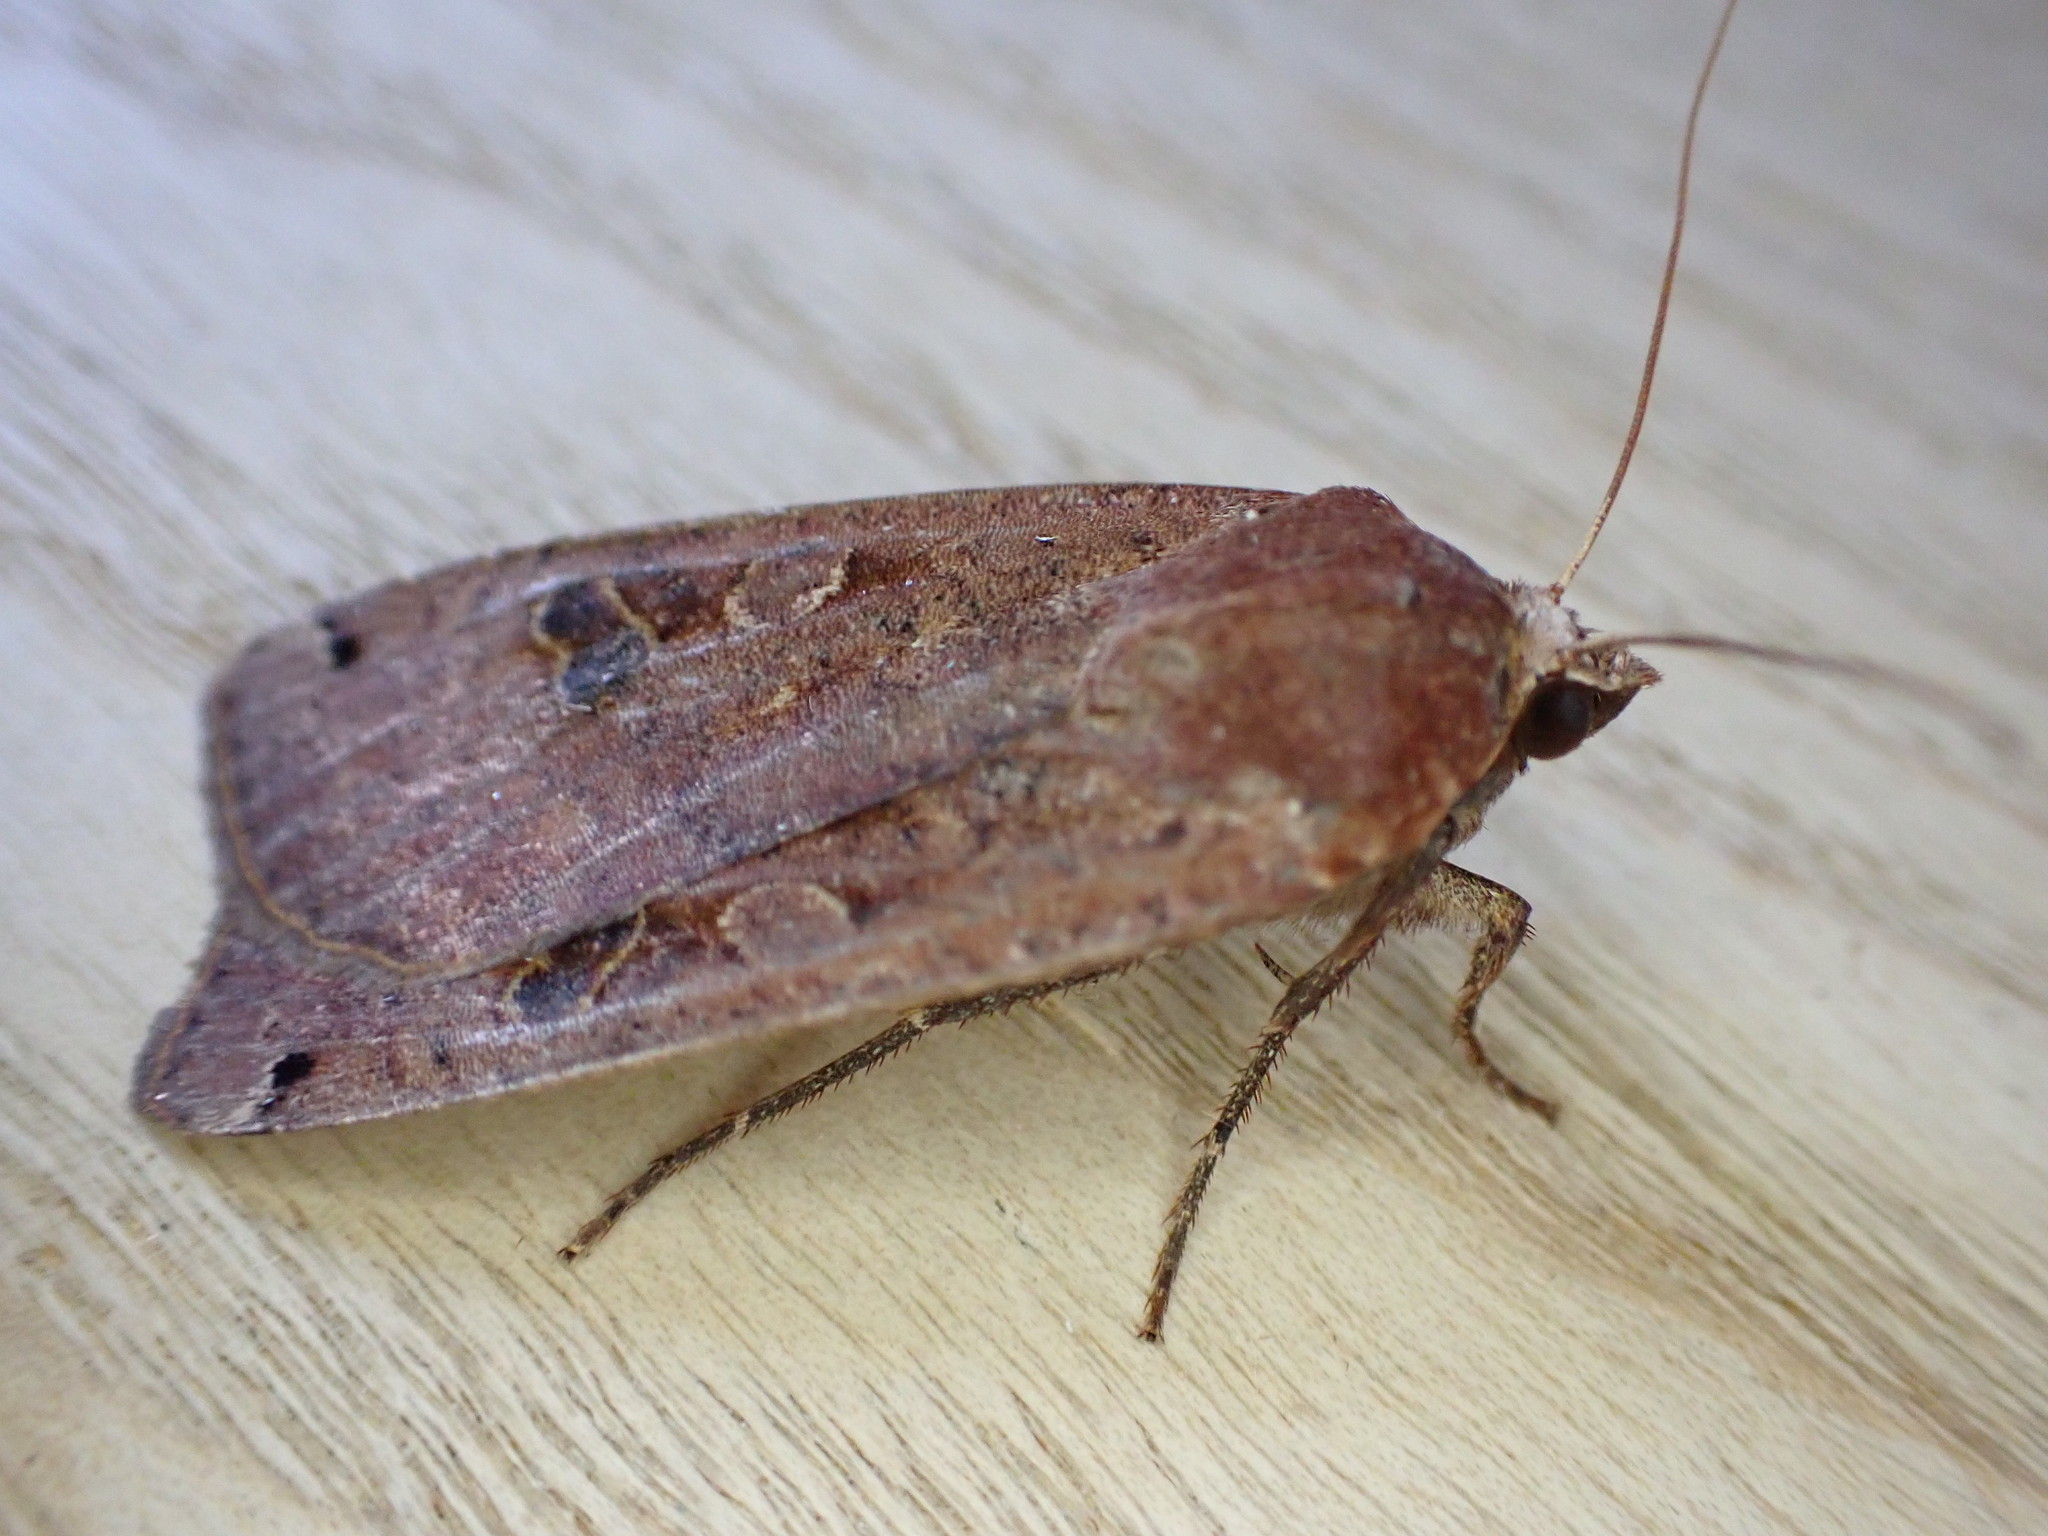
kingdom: Animalia
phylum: Arthropoda
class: Insecta
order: Lepidoptera
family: Noctuidae
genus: Noctua
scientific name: Noctua pronuba
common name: Large yellow underwing
